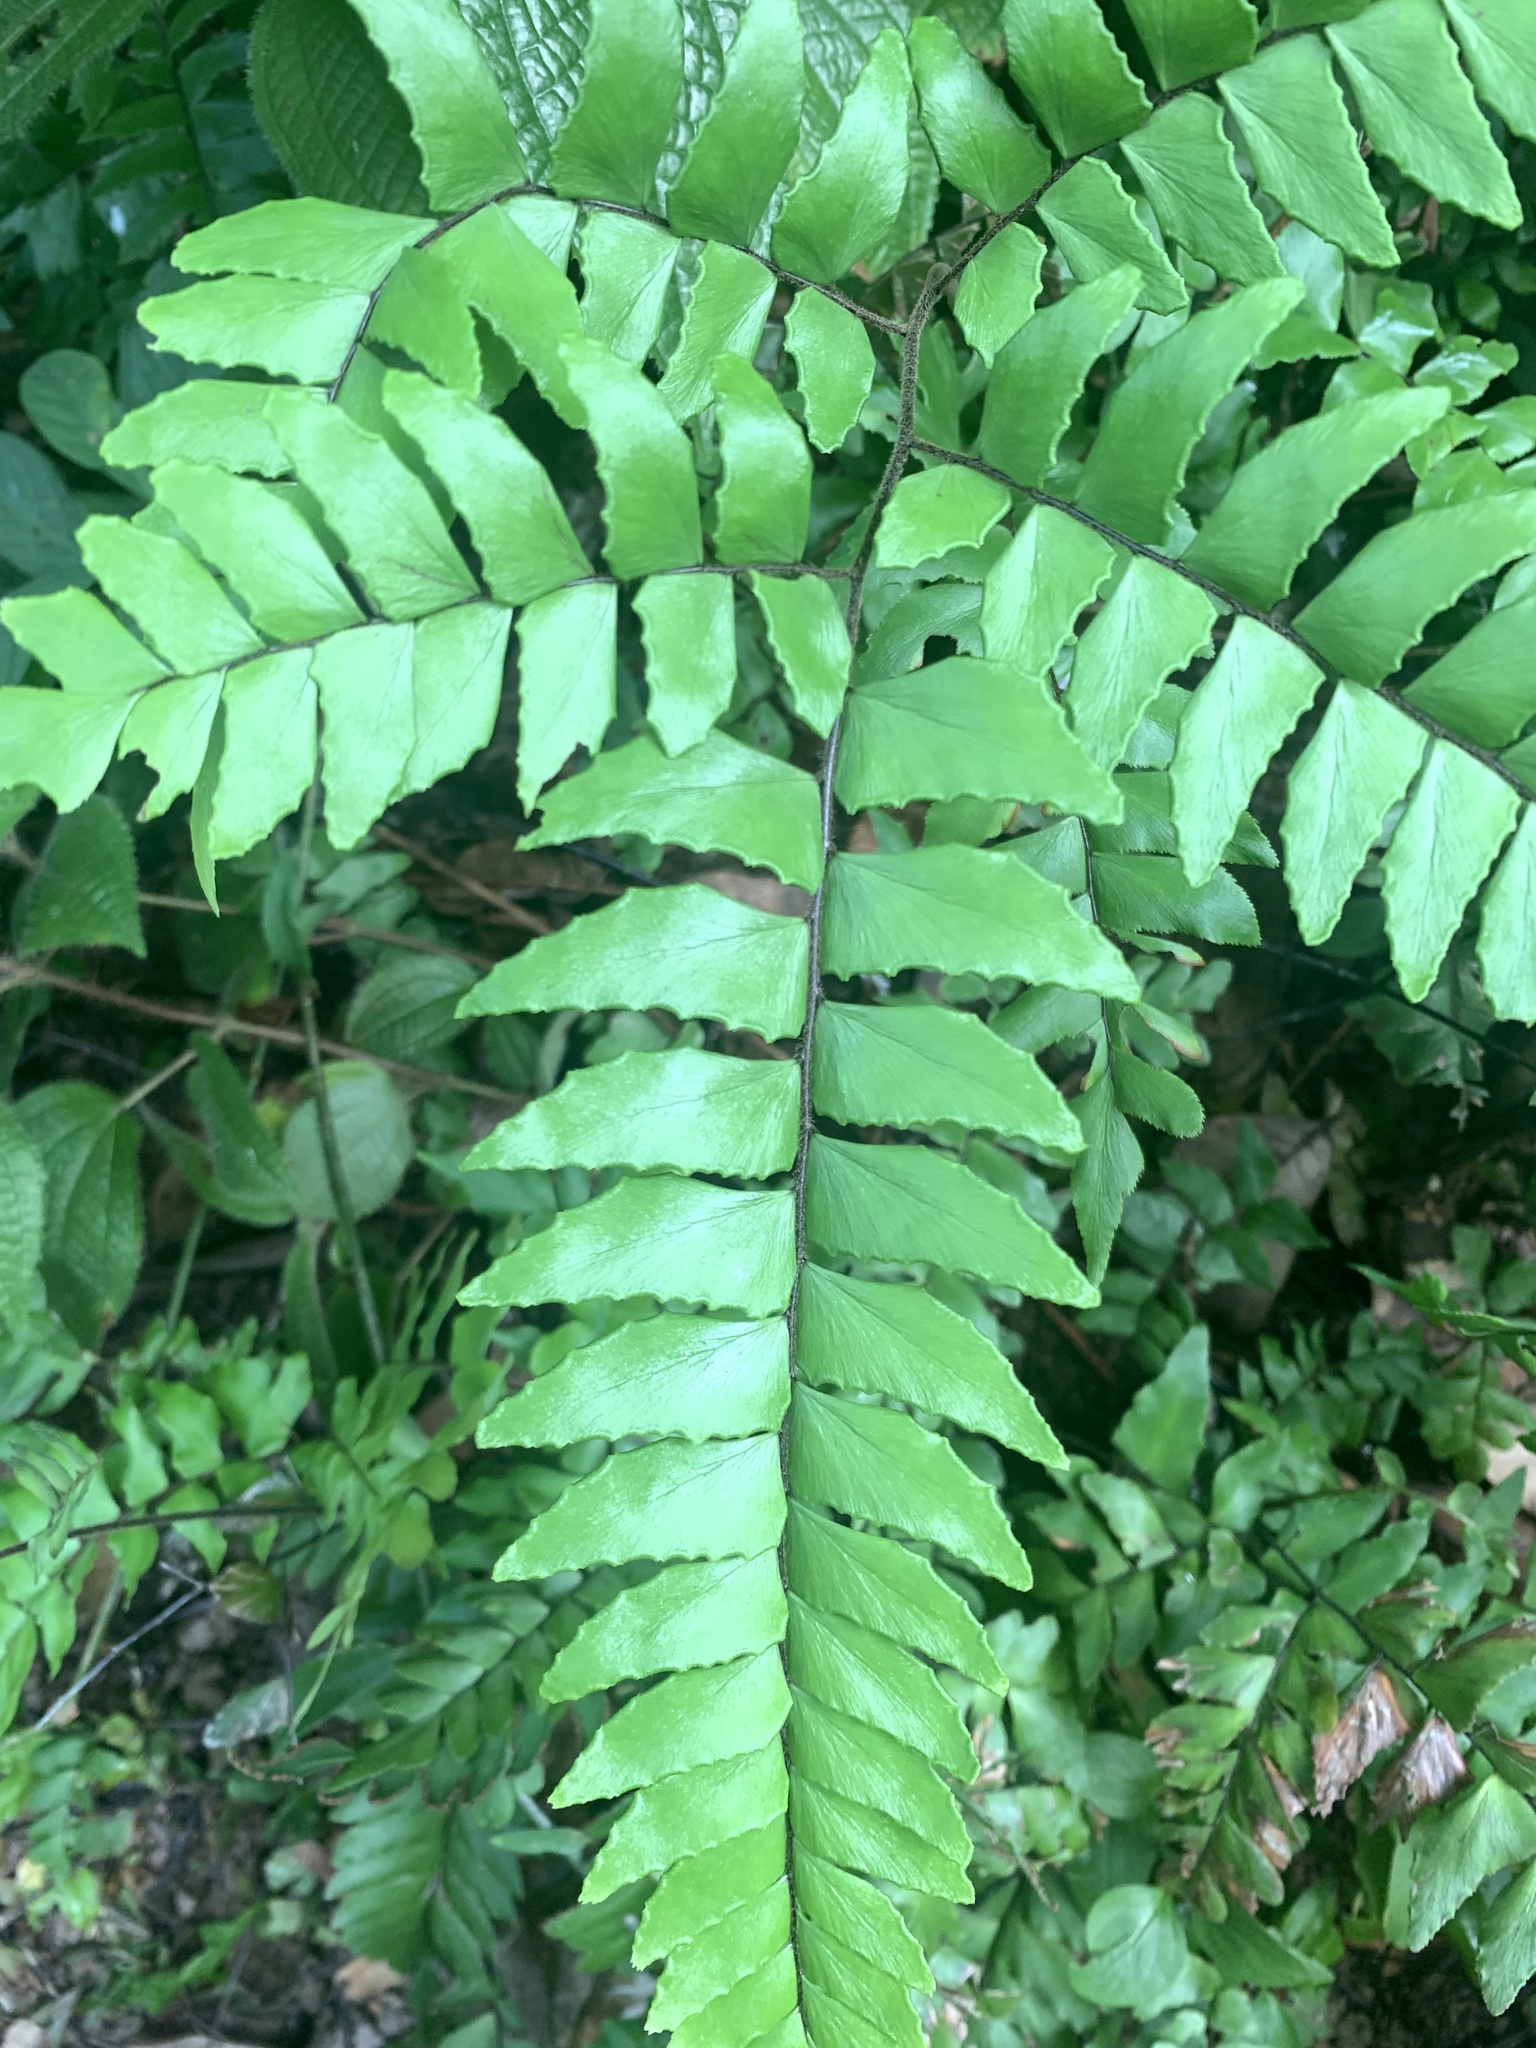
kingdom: Plantae
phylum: Tracheophyta
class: Polypodiopsida
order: Polypodiales
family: Pteridaceae
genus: Adiantum
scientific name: Adiantum latifolium
